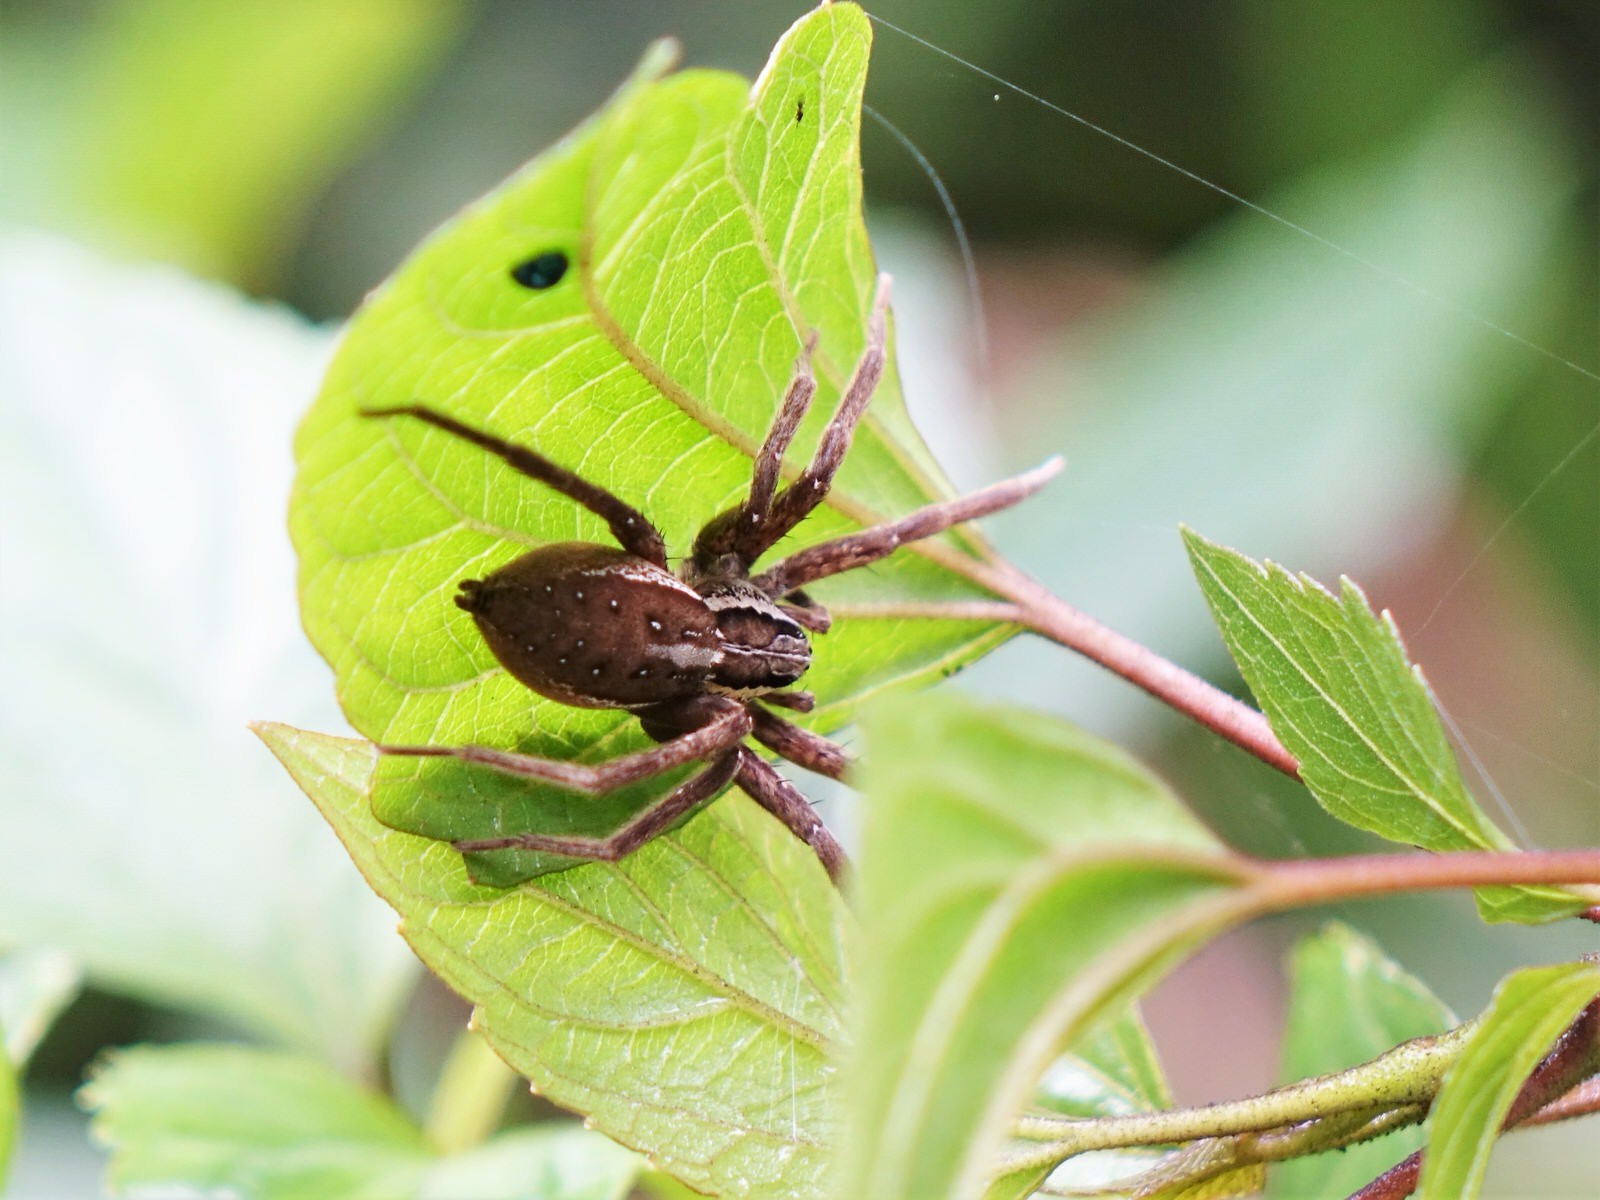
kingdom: Animalia
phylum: Arthropoda
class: Arachnida
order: Araneae
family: Pisauridae
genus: Dolomedes
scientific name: Dolomedes minor
